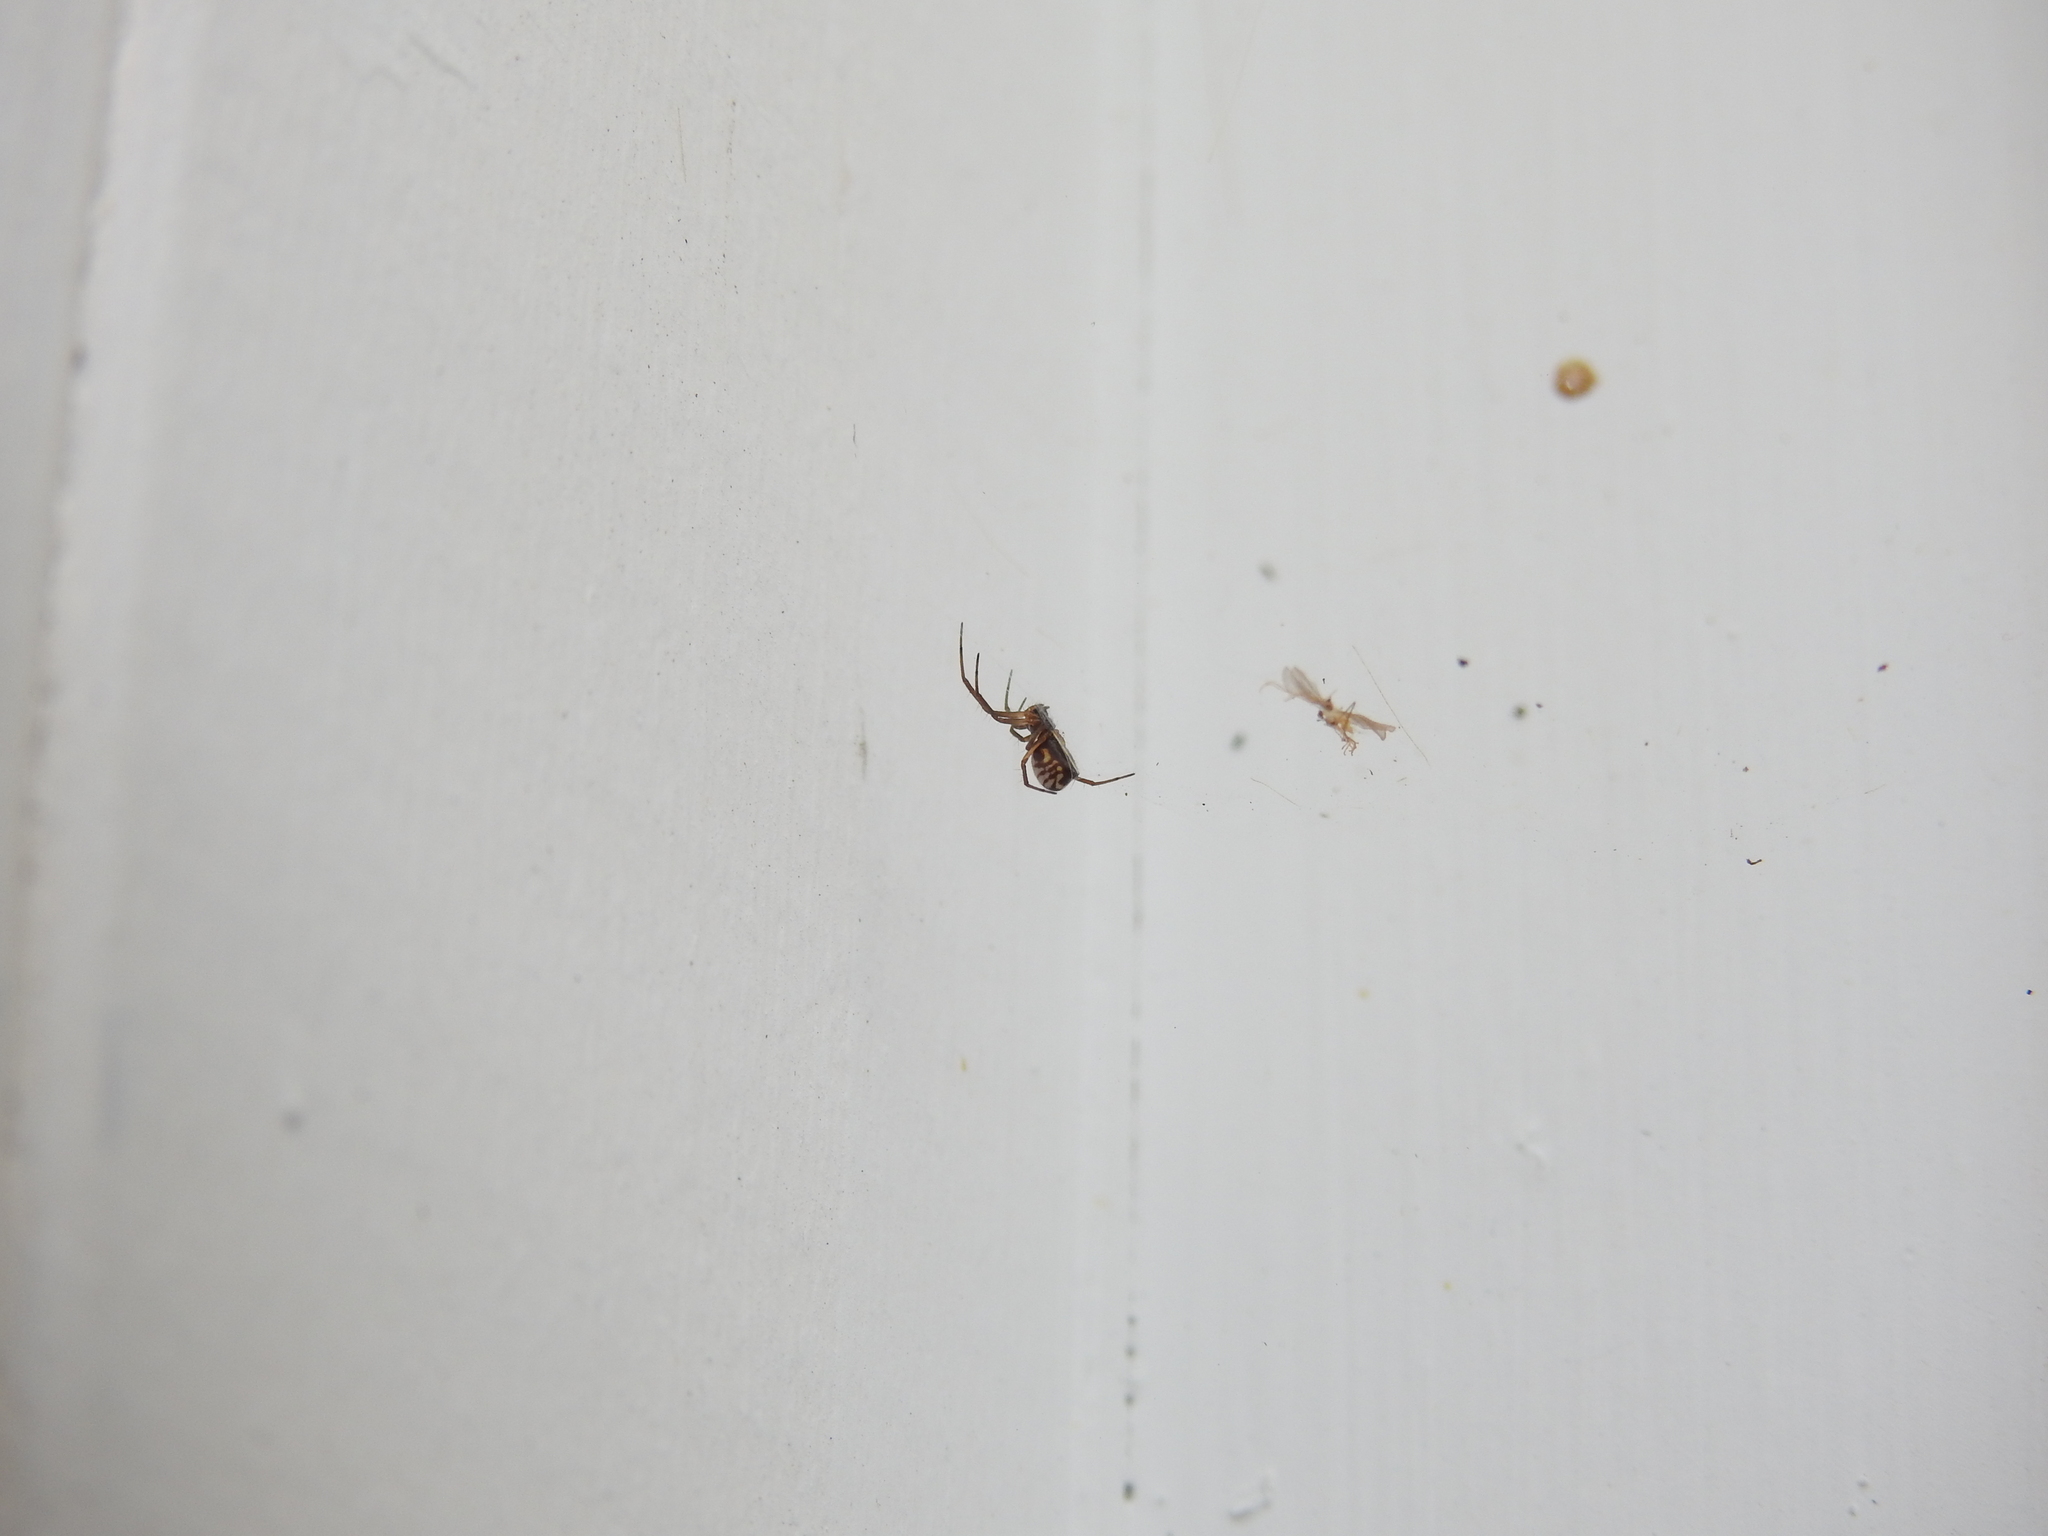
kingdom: Animalia
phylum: Arthropoda
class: Arachnida
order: Araneae
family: Linyphiidae
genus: Frontinella
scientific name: Frontinella pyramitela
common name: Bowl-and-doily spider
